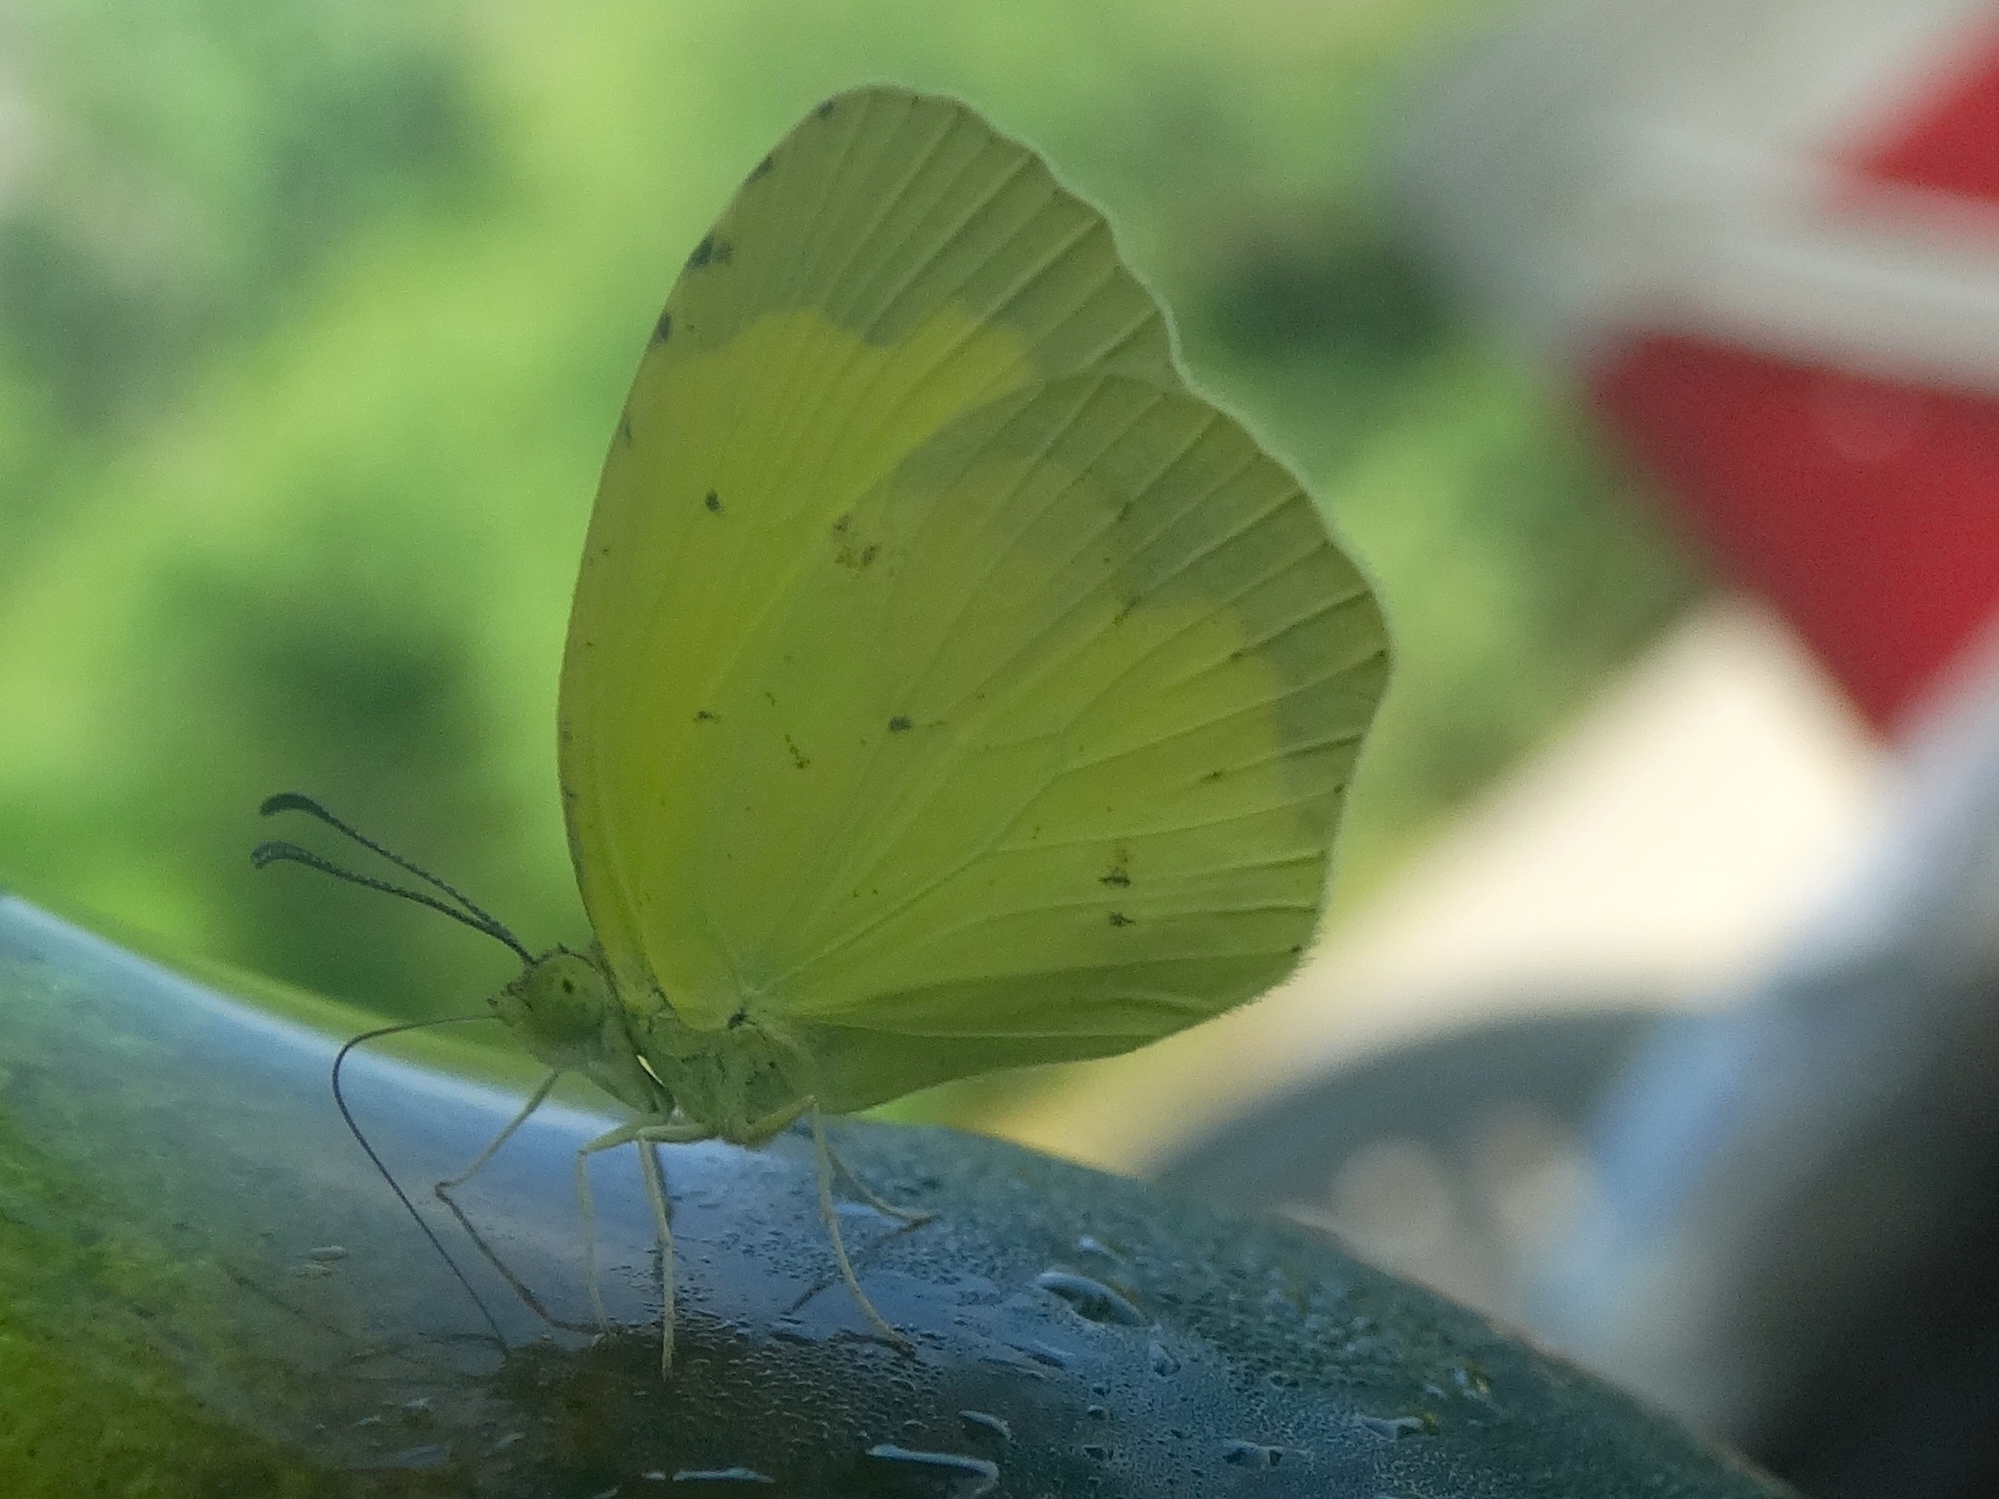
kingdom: Animalia
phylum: Arthropoda
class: Insecta
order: Lepidoptera
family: Pieridae
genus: Abaeis
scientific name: Abaeis boisduvaliana
